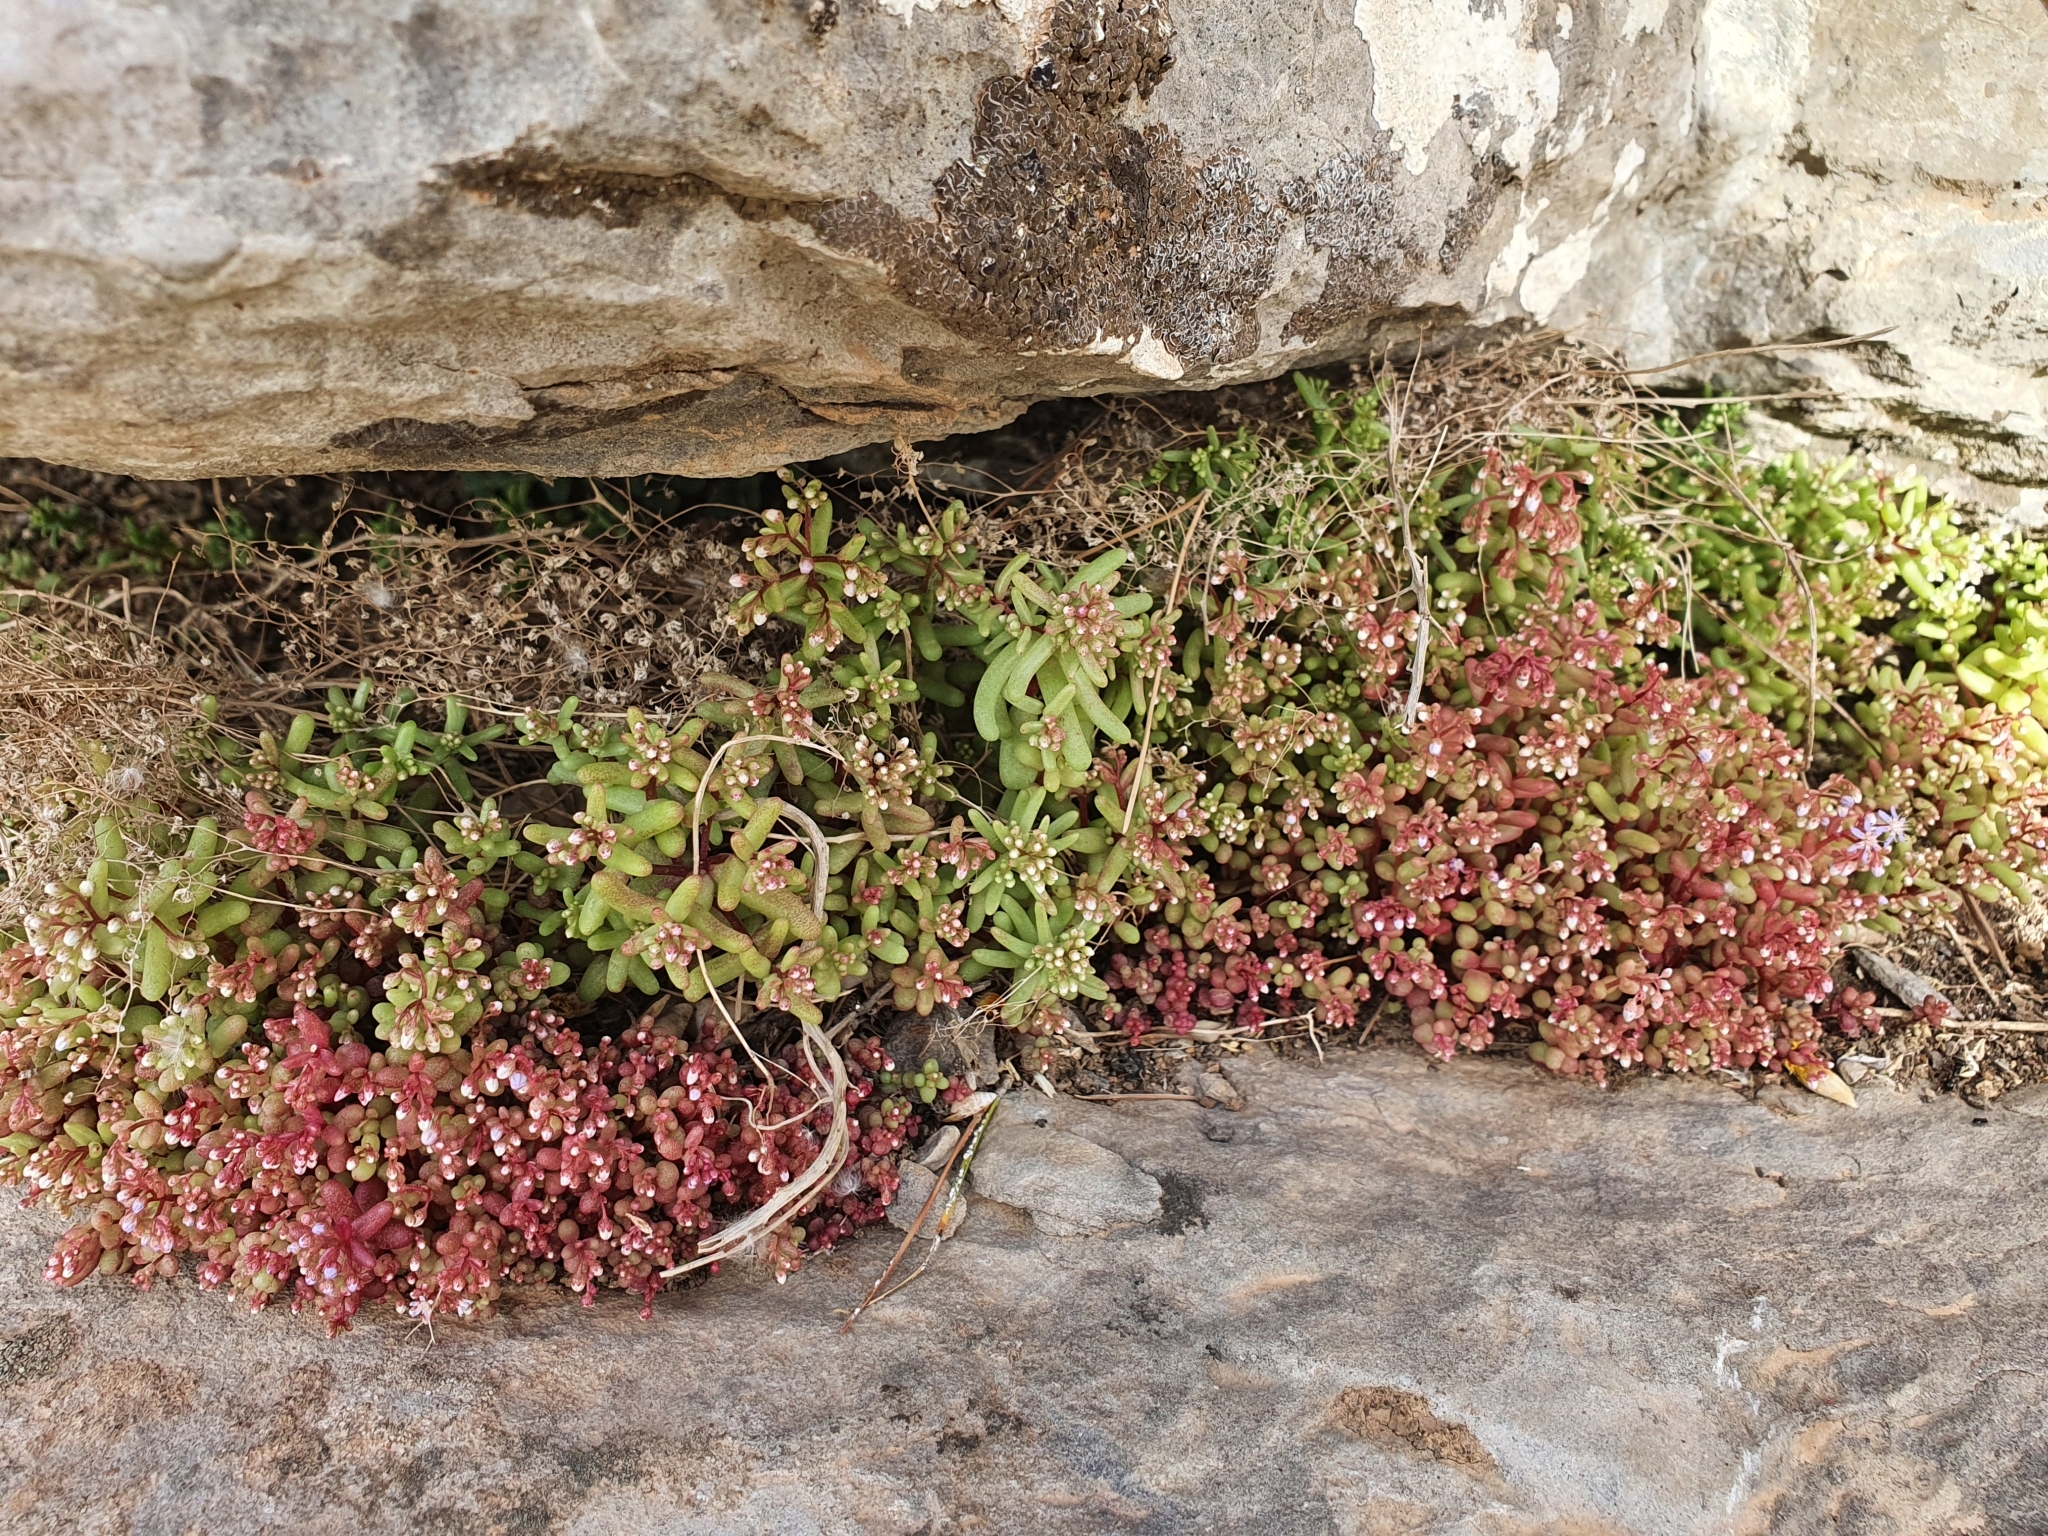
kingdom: Plantae
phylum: Tracheophyta
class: Magnoliopsida
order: Saxifragales
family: Crassulaceae
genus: Sedum
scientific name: Sedum caeruleum
